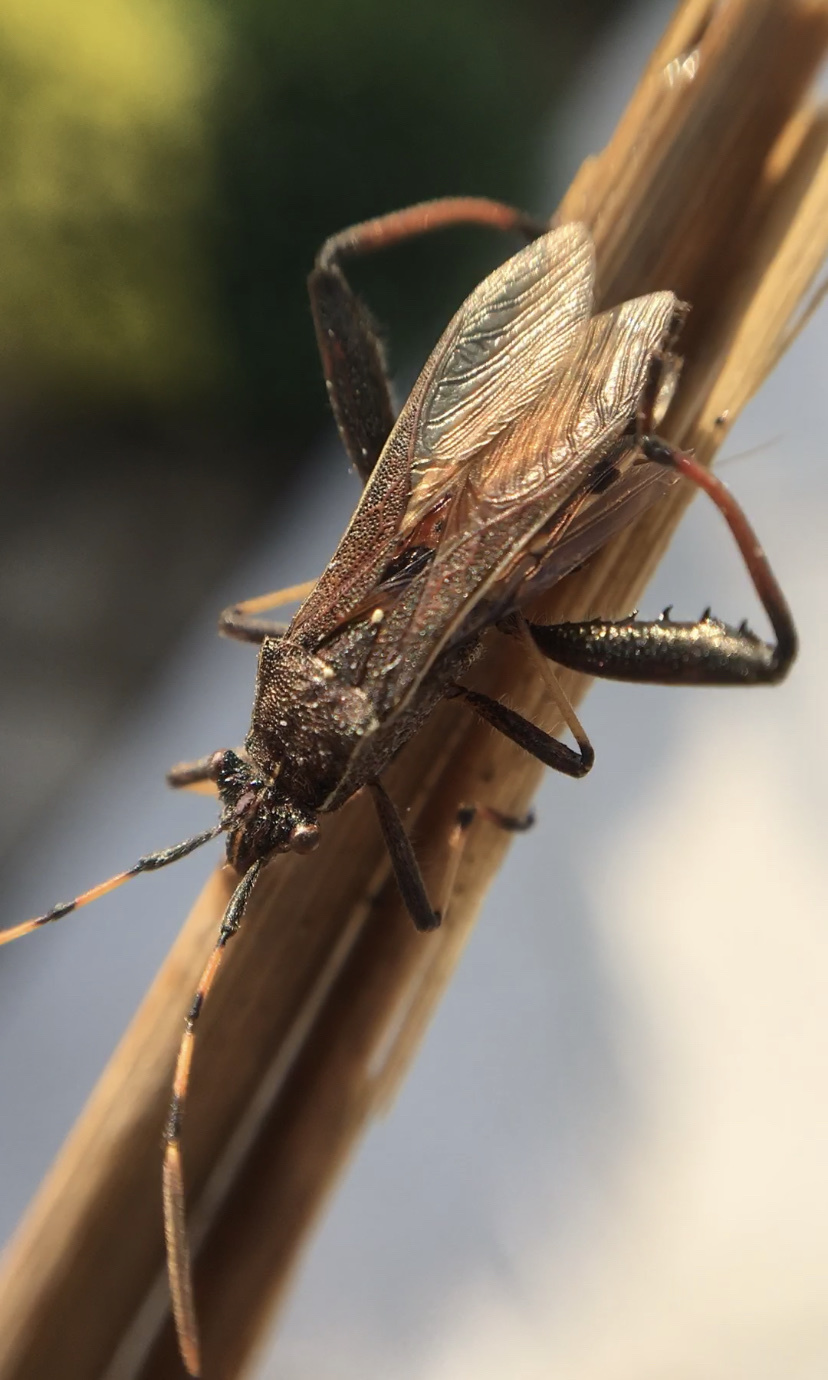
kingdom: Animalia
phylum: Arthropoda
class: Insecta
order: Hemiptera
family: Alydidae
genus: Camptopus
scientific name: Camptopus lateralis
